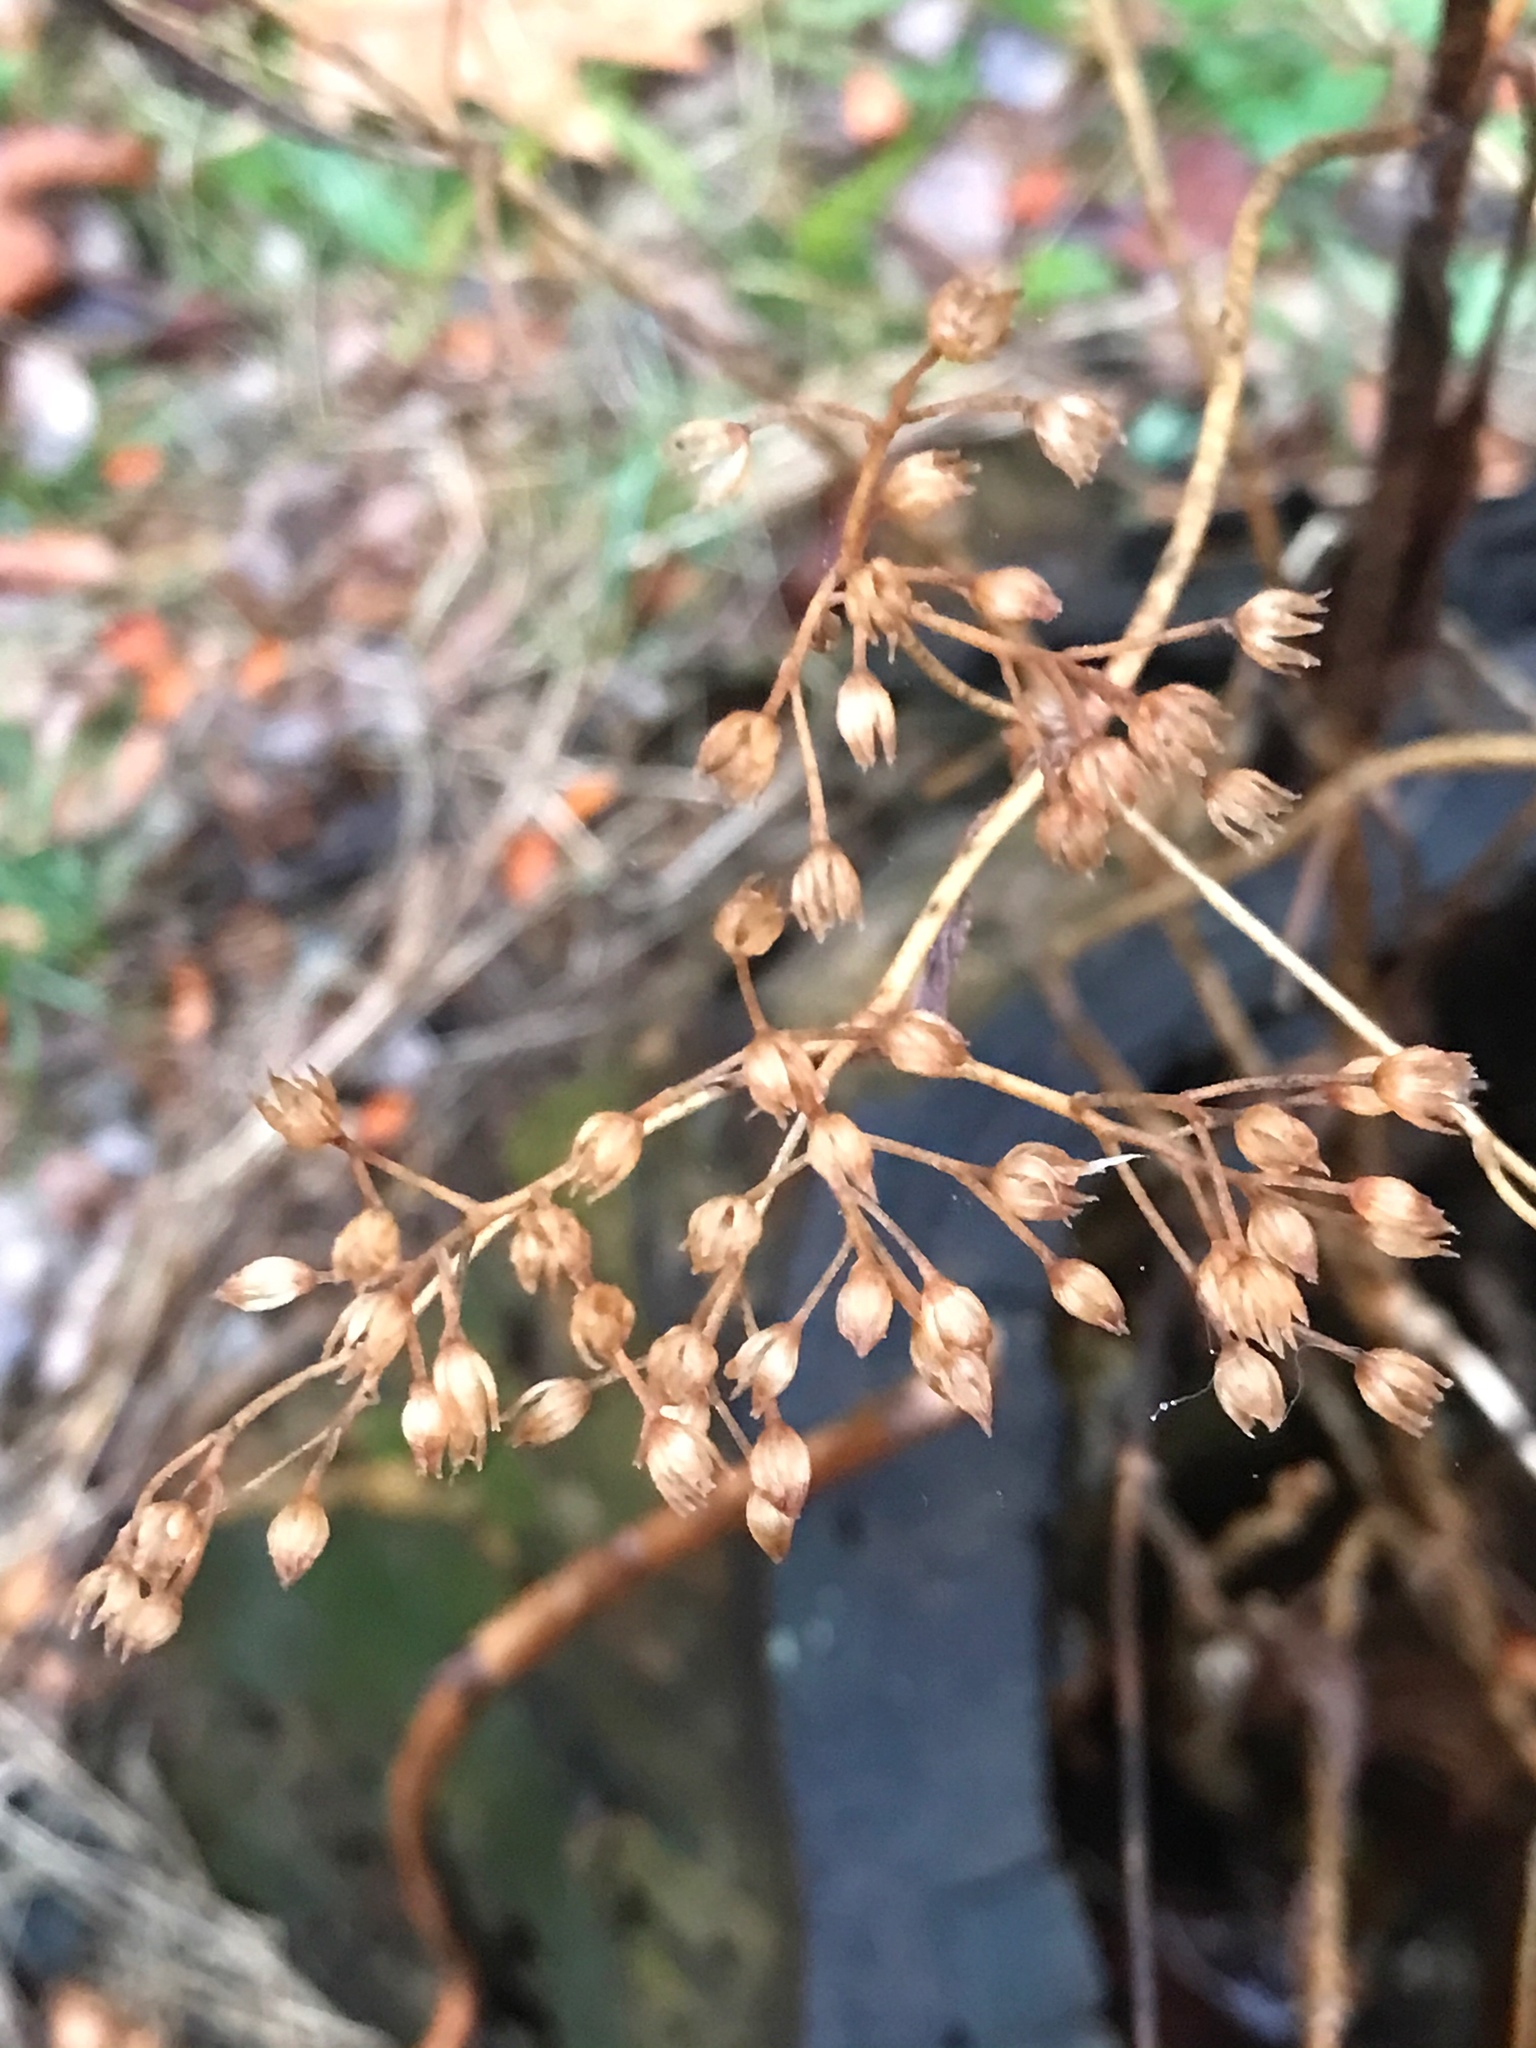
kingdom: Plantae
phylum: Tracheophyta
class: Magnoliopsida
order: Asterales
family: Asteraceae
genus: Ageratina
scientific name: Ageratina altissima
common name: White snakeroot
